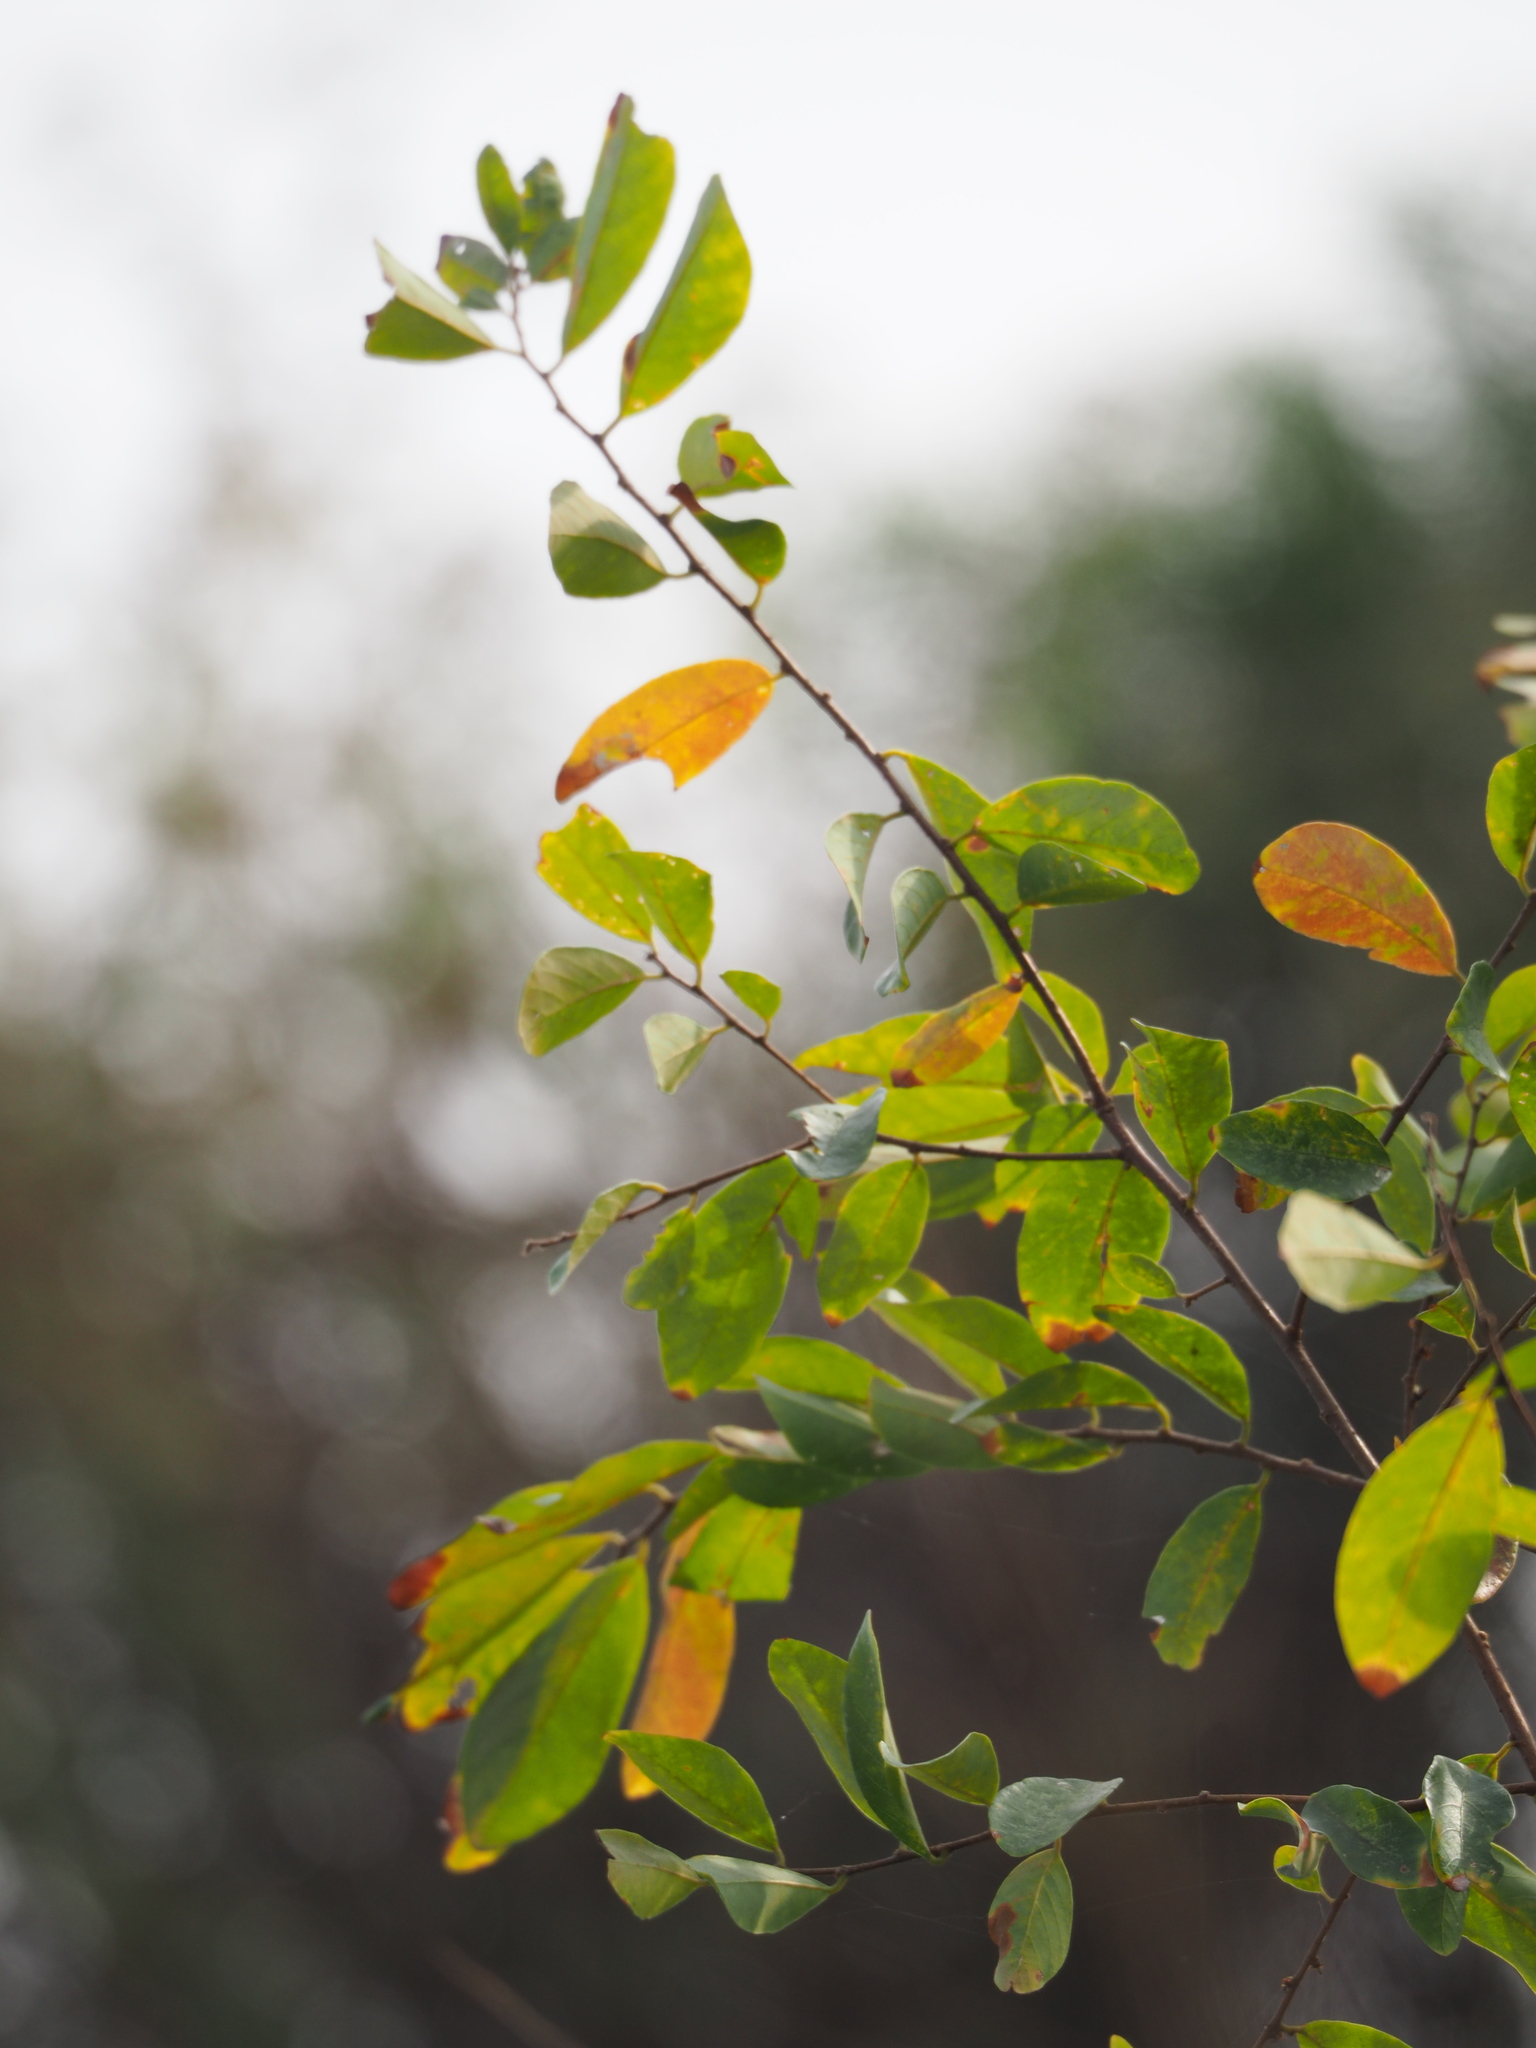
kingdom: Plantae
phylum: Tracheophyta
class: Magnoliopsida
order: Malpighiales
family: Phyllanthaceae
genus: Bridelia
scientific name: Bridelia tomentosa
